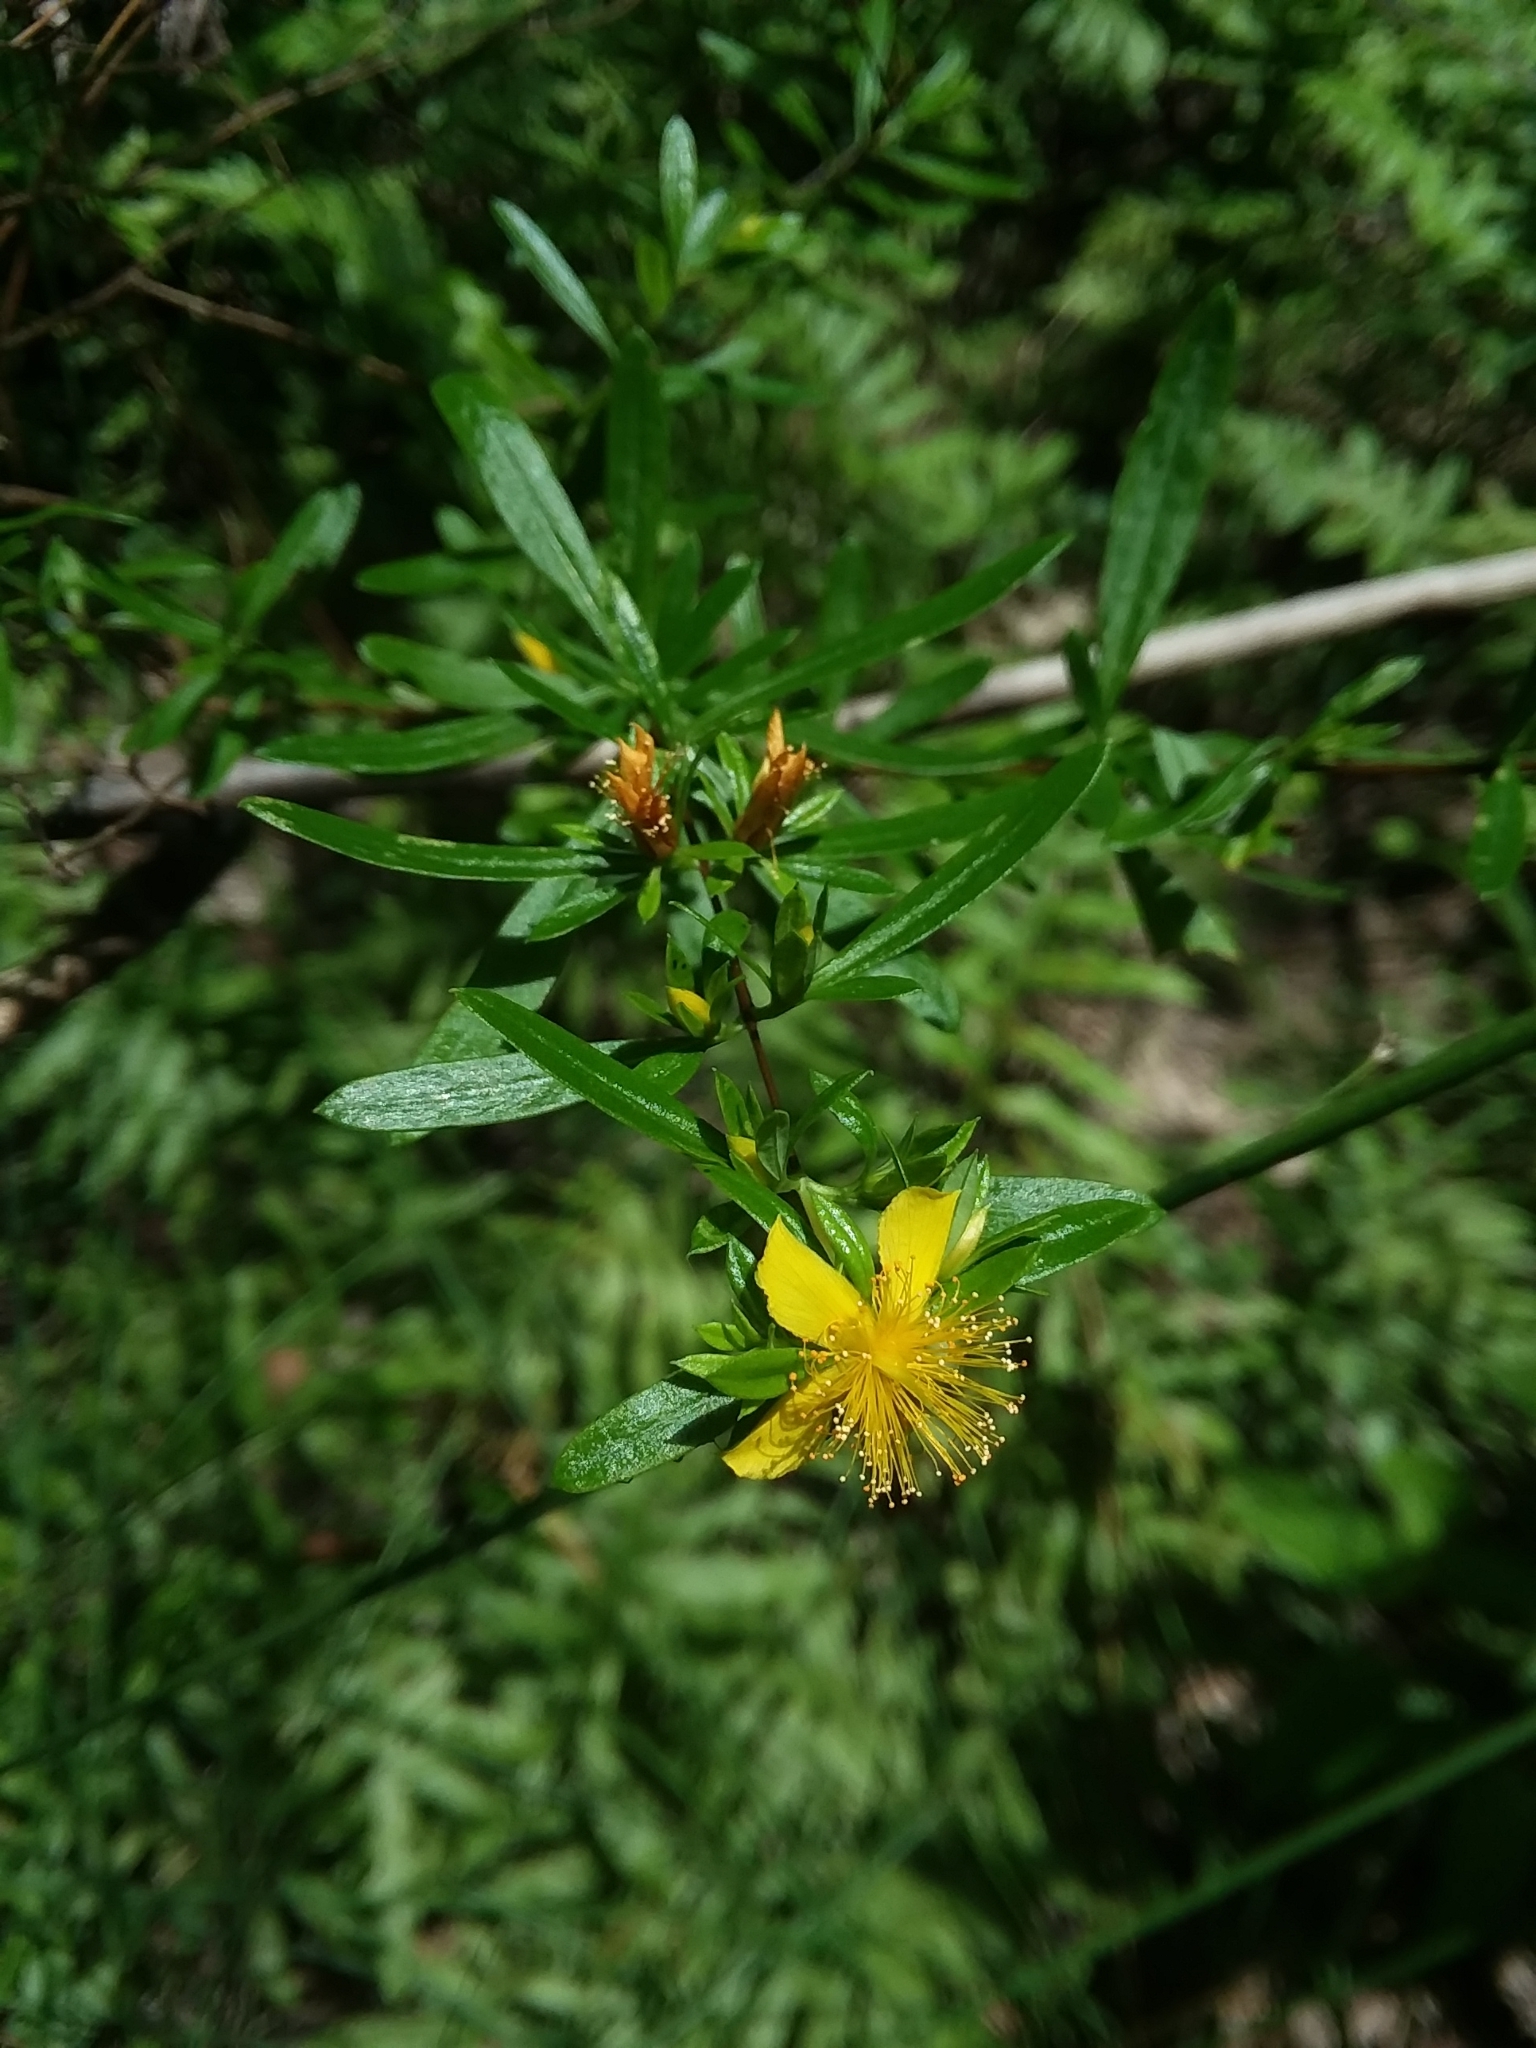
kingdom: Plantae
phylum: Tracheophyta
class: Magnoliopsida
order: Malpighiales
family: Hypericaceae
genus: Hypericum
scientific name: Hypericum galioides
